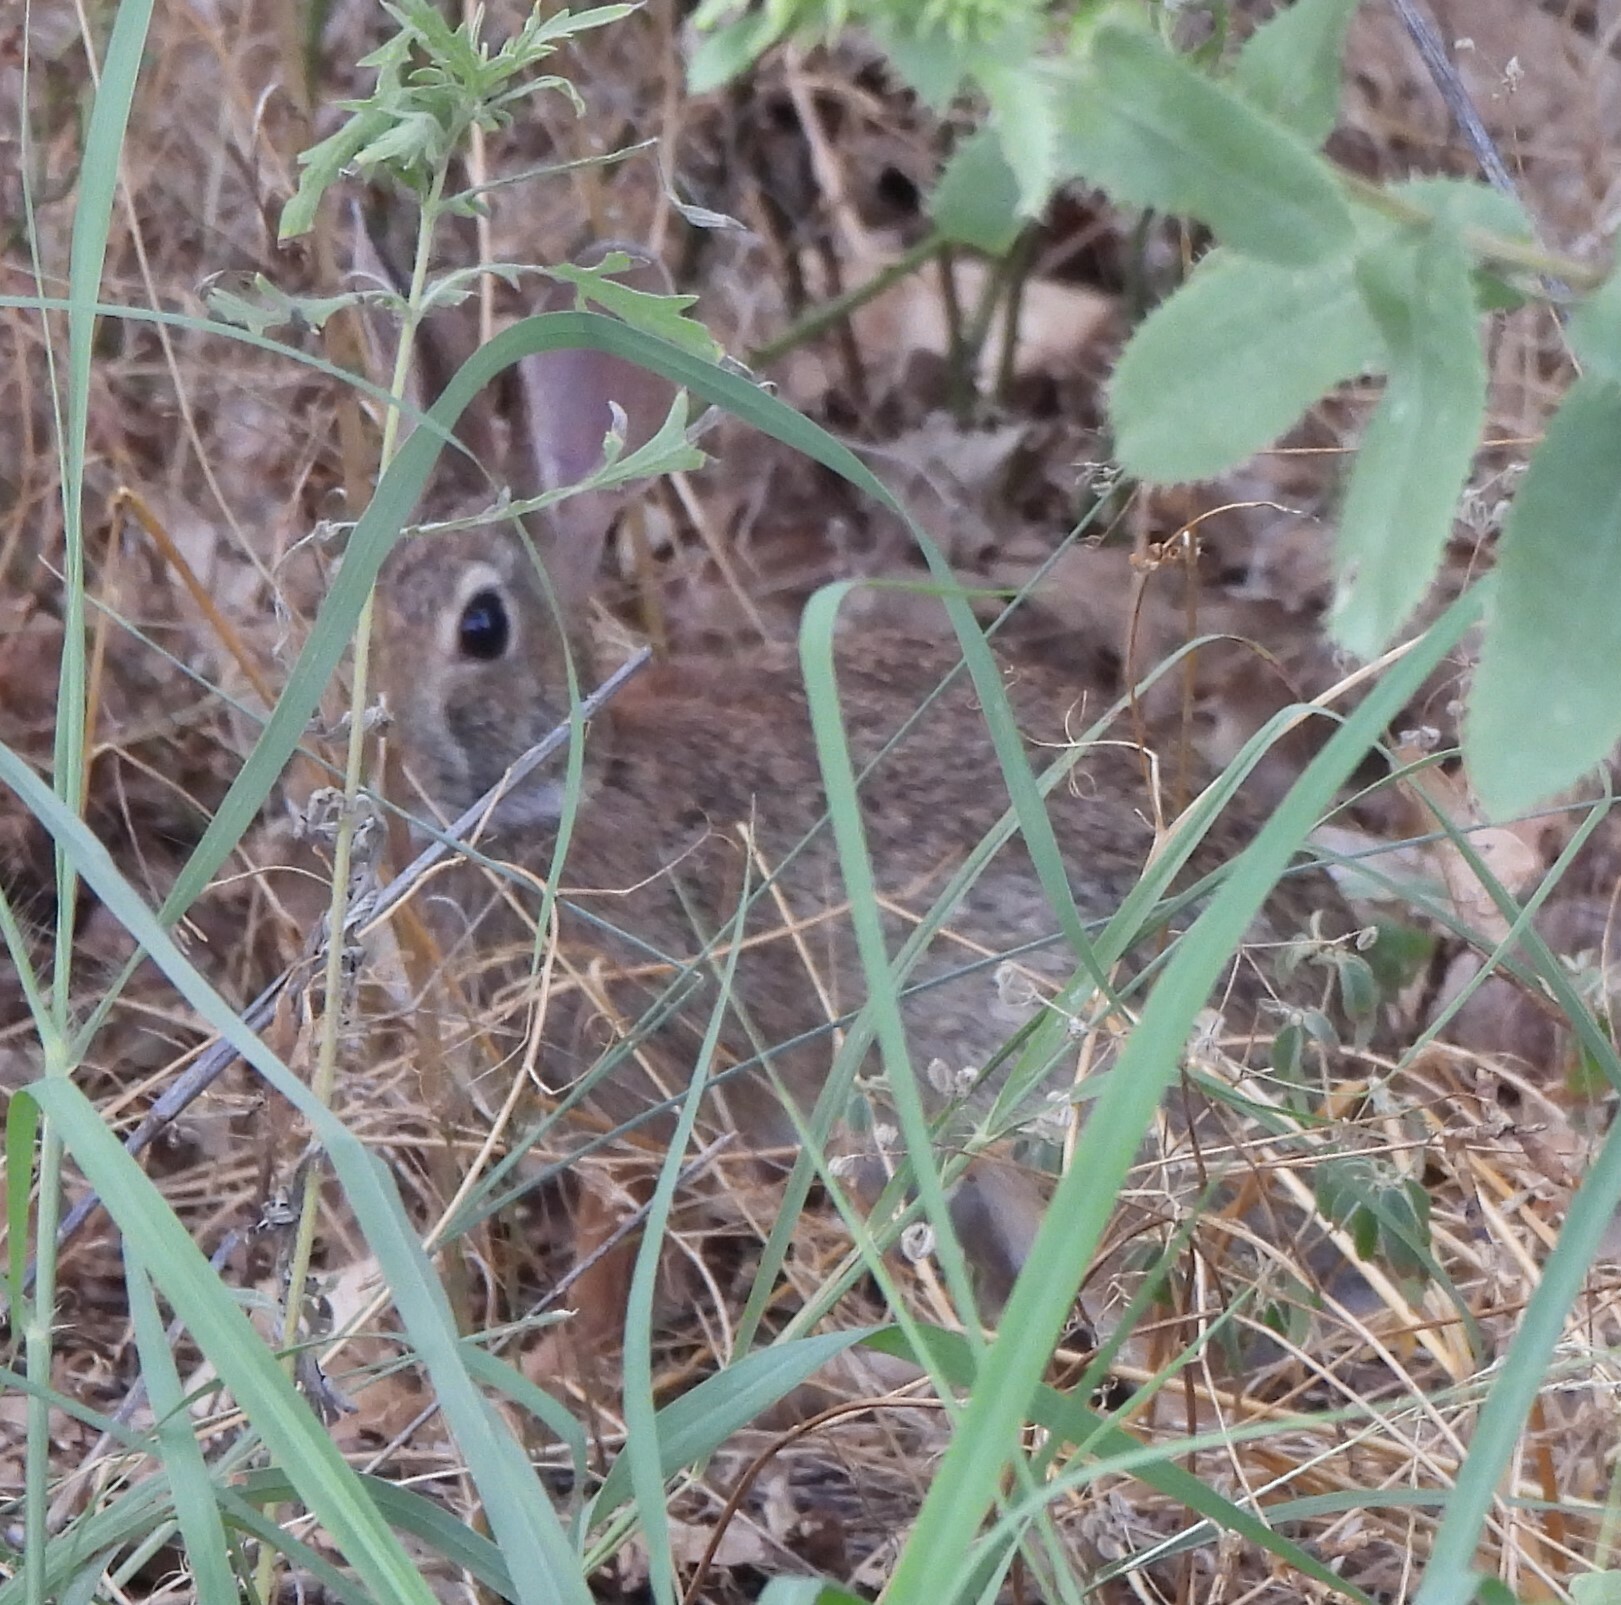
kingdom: Animalia
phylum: Chordata
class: Mammalia
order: Lagomorpha
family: Leporidae
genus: Sylvilagus
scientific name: Sylvilagus floridanus
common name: Eastern cottontail
